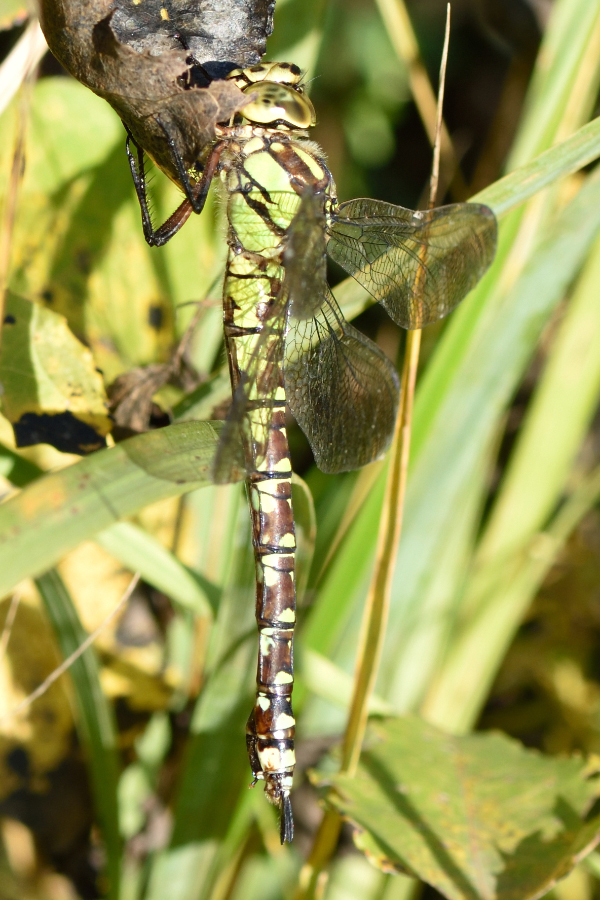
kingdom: Animalia
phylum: Arthropoda
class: Insecta
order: Odonata
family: Aeshnidae
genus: Aeshna
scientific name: Aeshna cyanea
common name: Southern hawker
